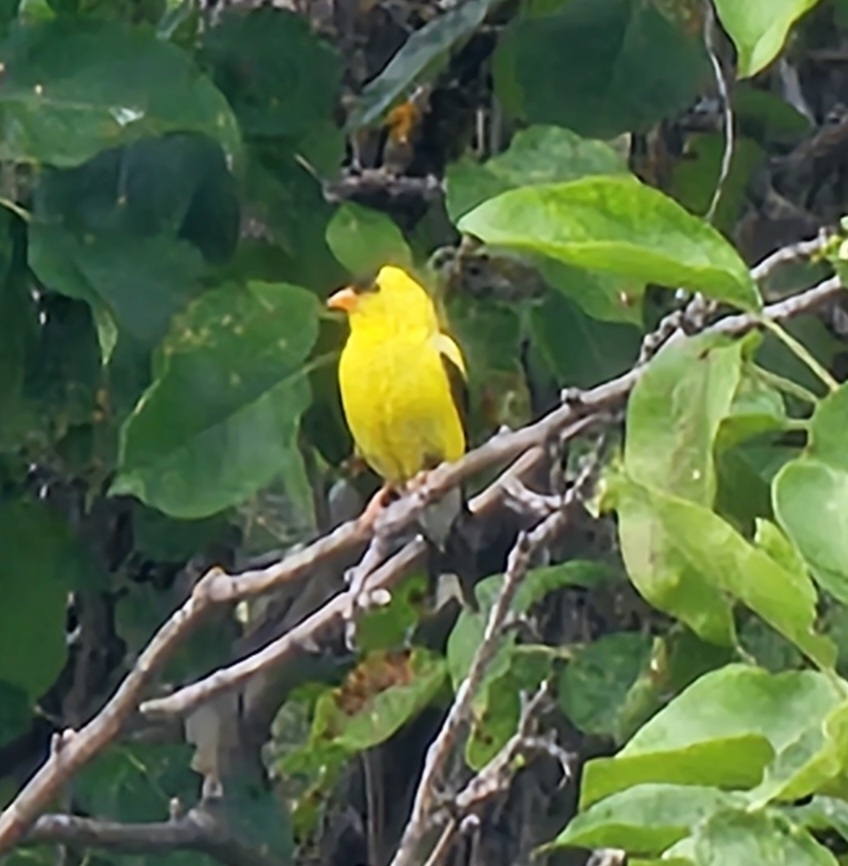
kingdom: Animalia
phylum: Chordata
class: Aves
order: Passeriformes
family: Fringillidae
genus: Spinus
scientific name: Spinus tristis
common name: American goldfinch
